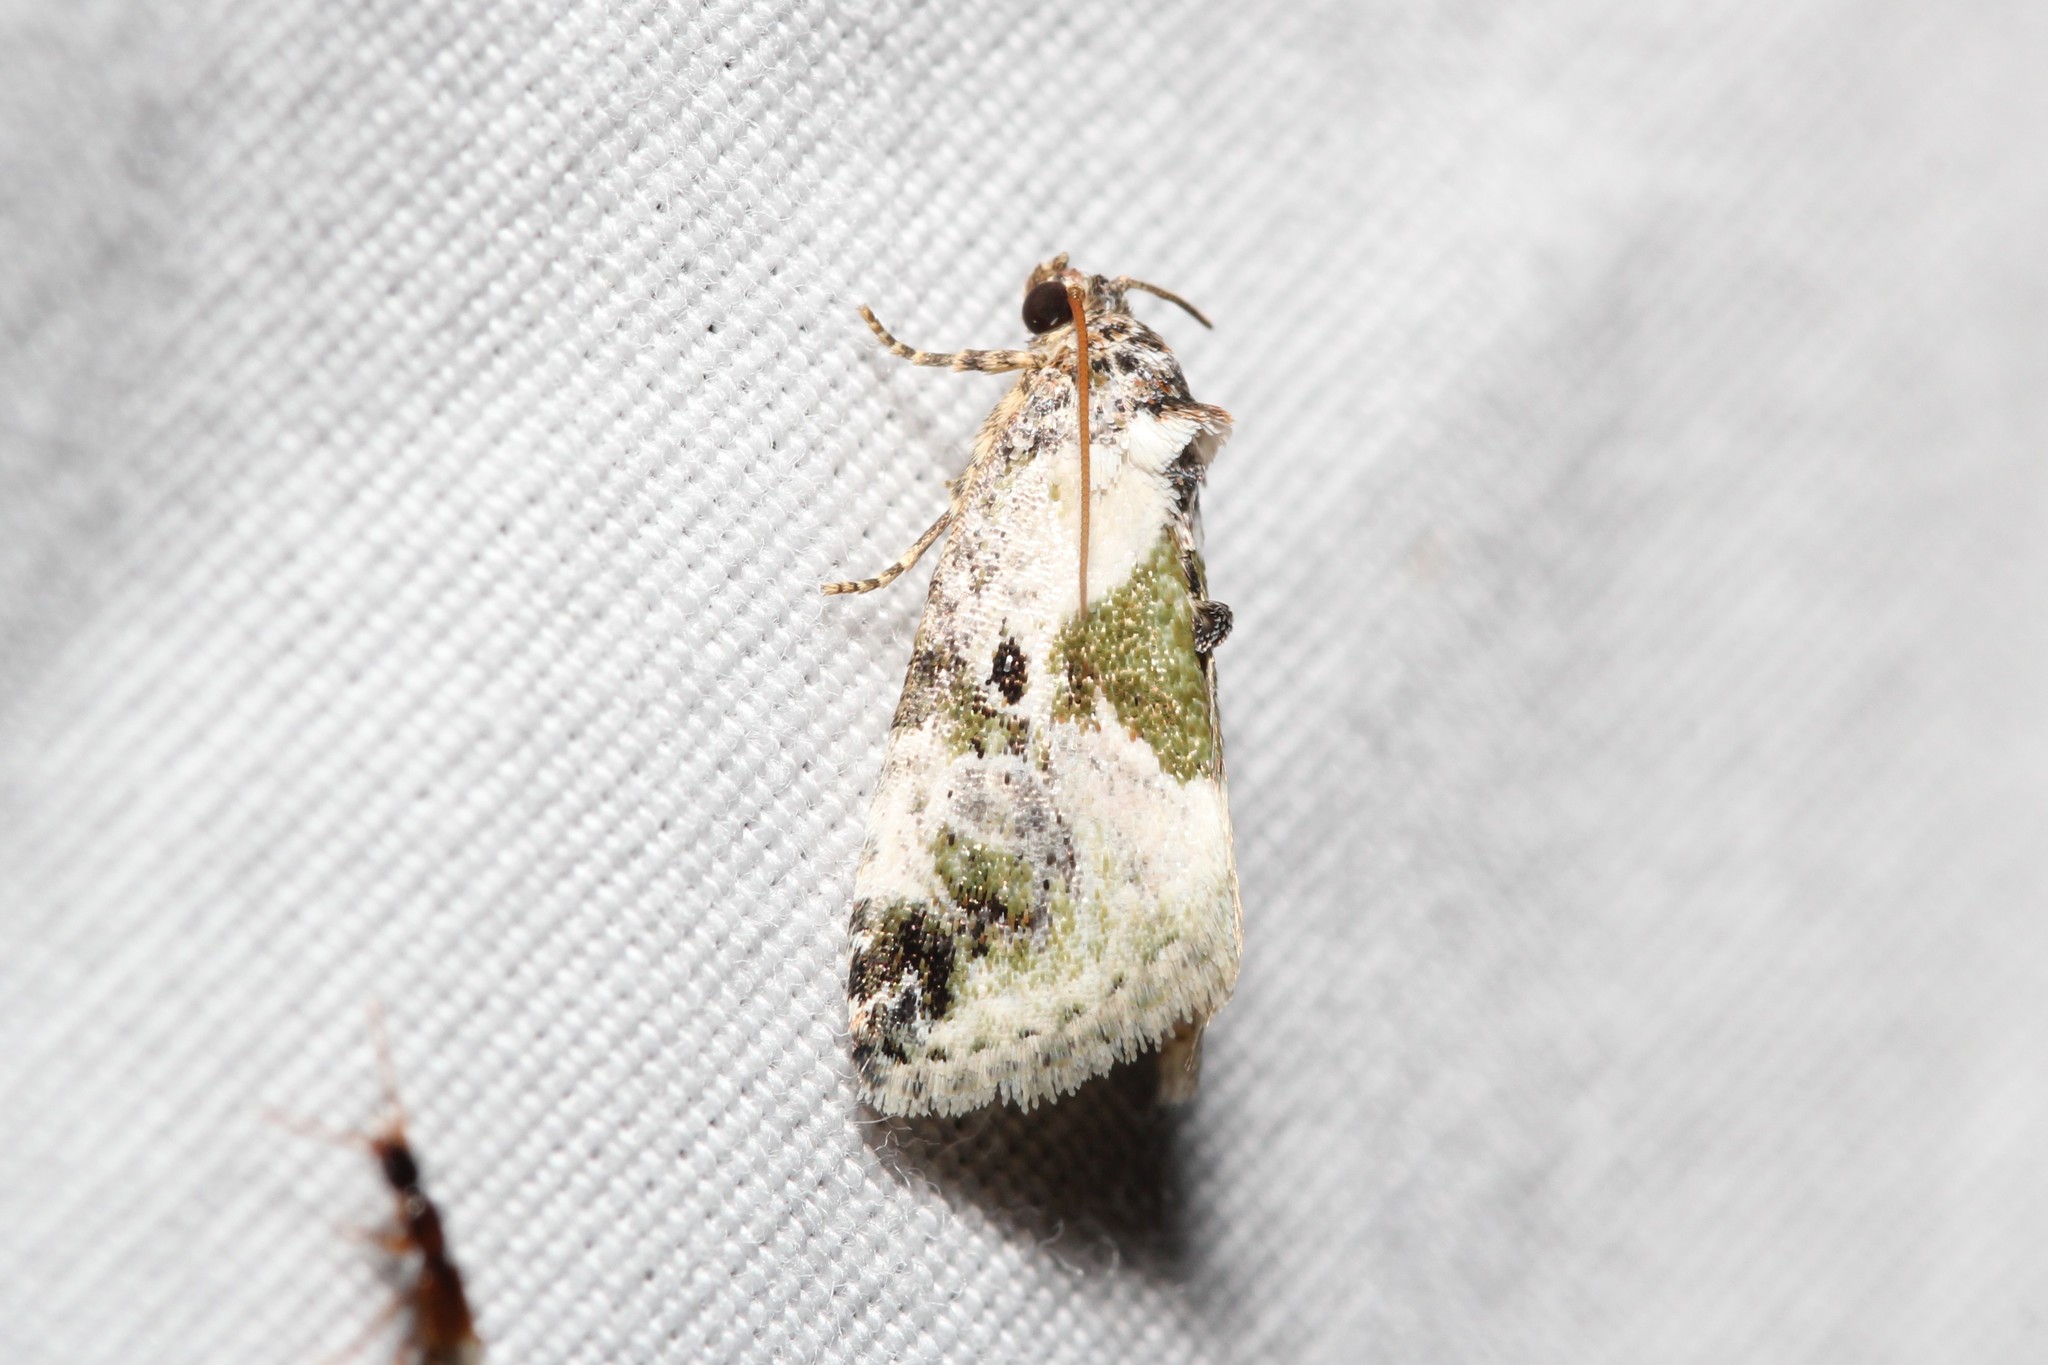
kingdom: Animalia
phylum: Arthropoda
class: Insecta
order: Lepidoptera
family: Noctuidae
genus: Maliattha
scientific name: Maliattha synochitis
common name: Black-dotted glyph
